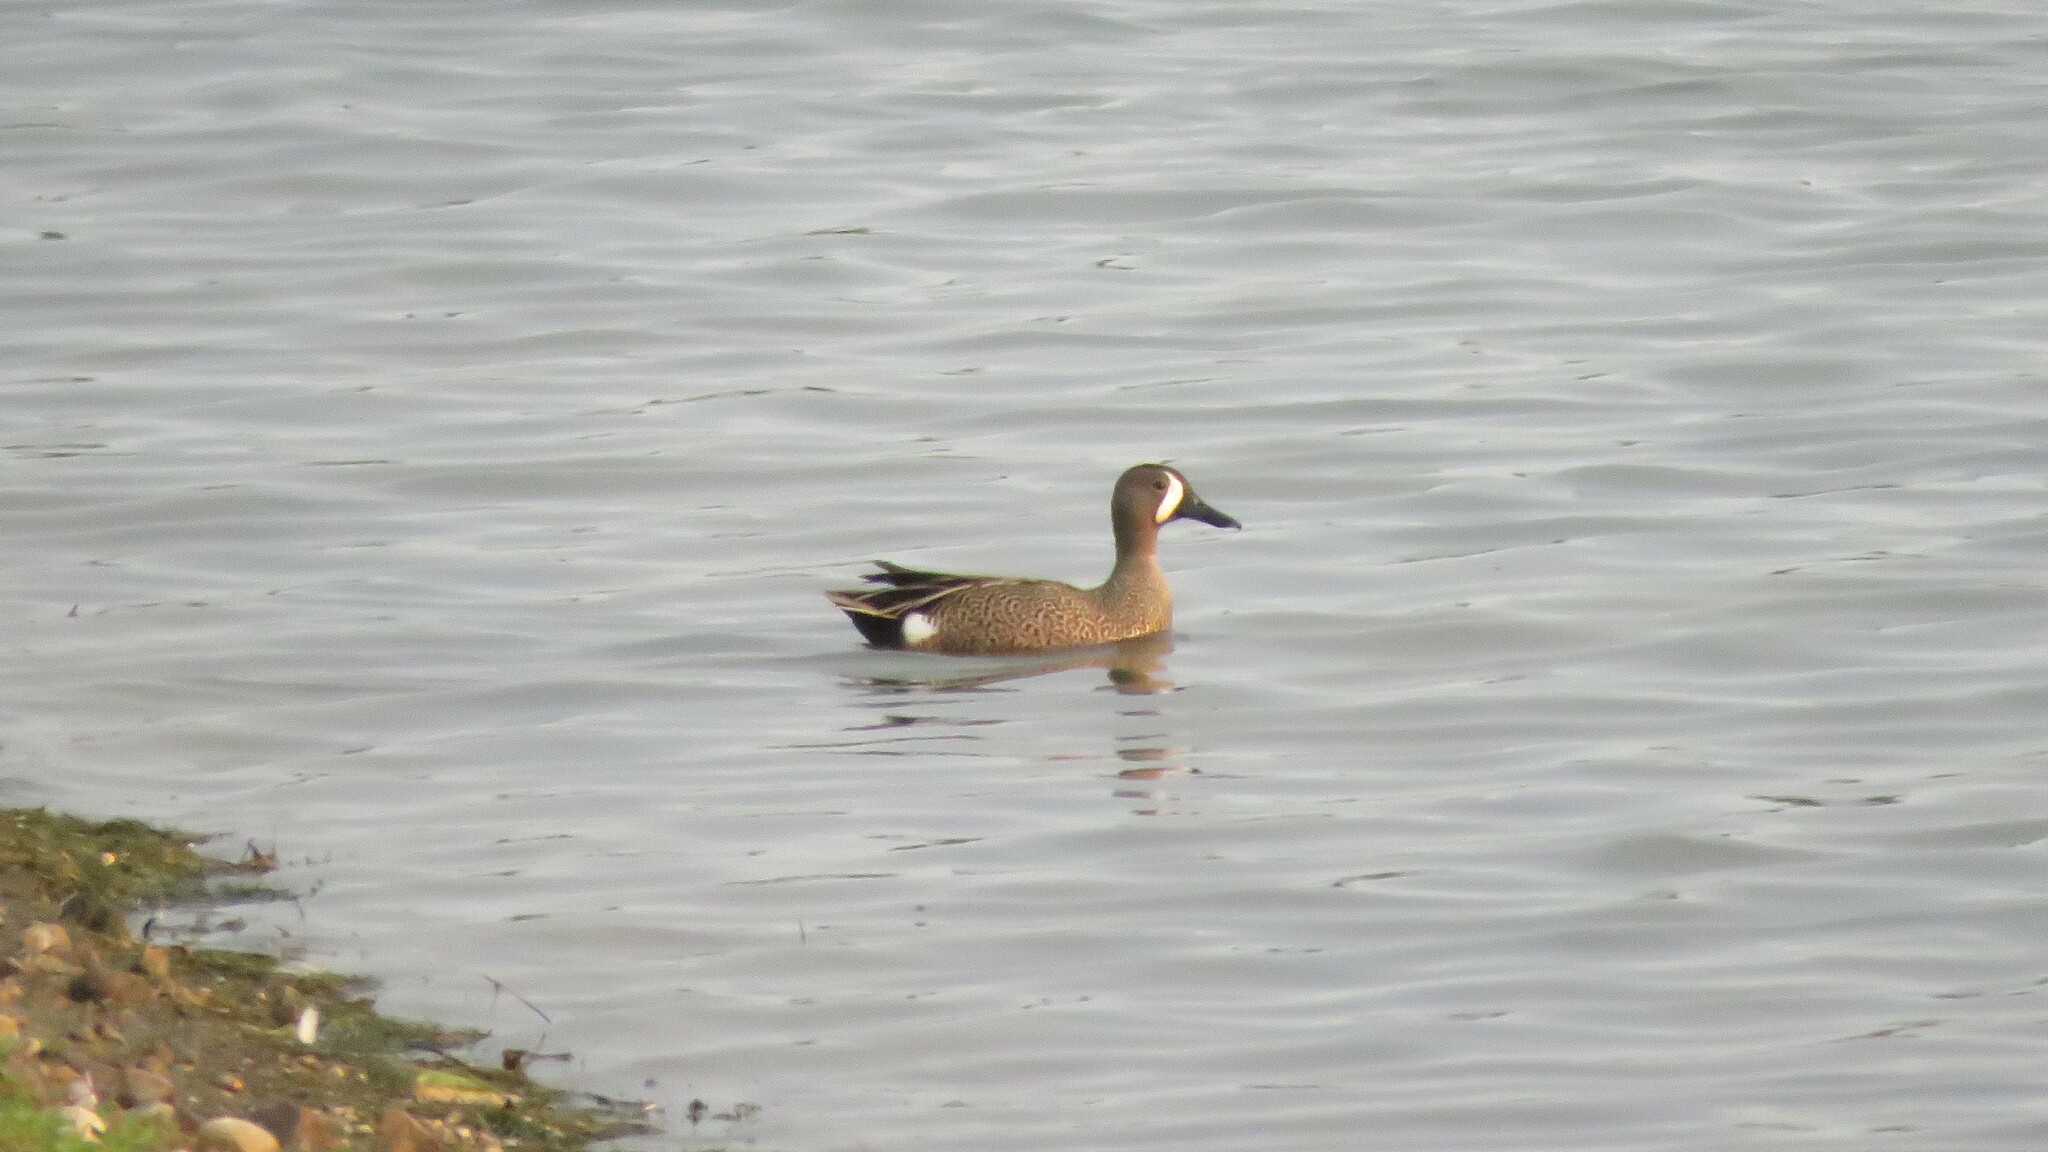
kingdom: Animalia
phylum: Chordata
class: Aves
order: Anseriformes
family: Anatidae
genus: Spatula
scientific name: Spatula discors
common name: Blue-winged teal
